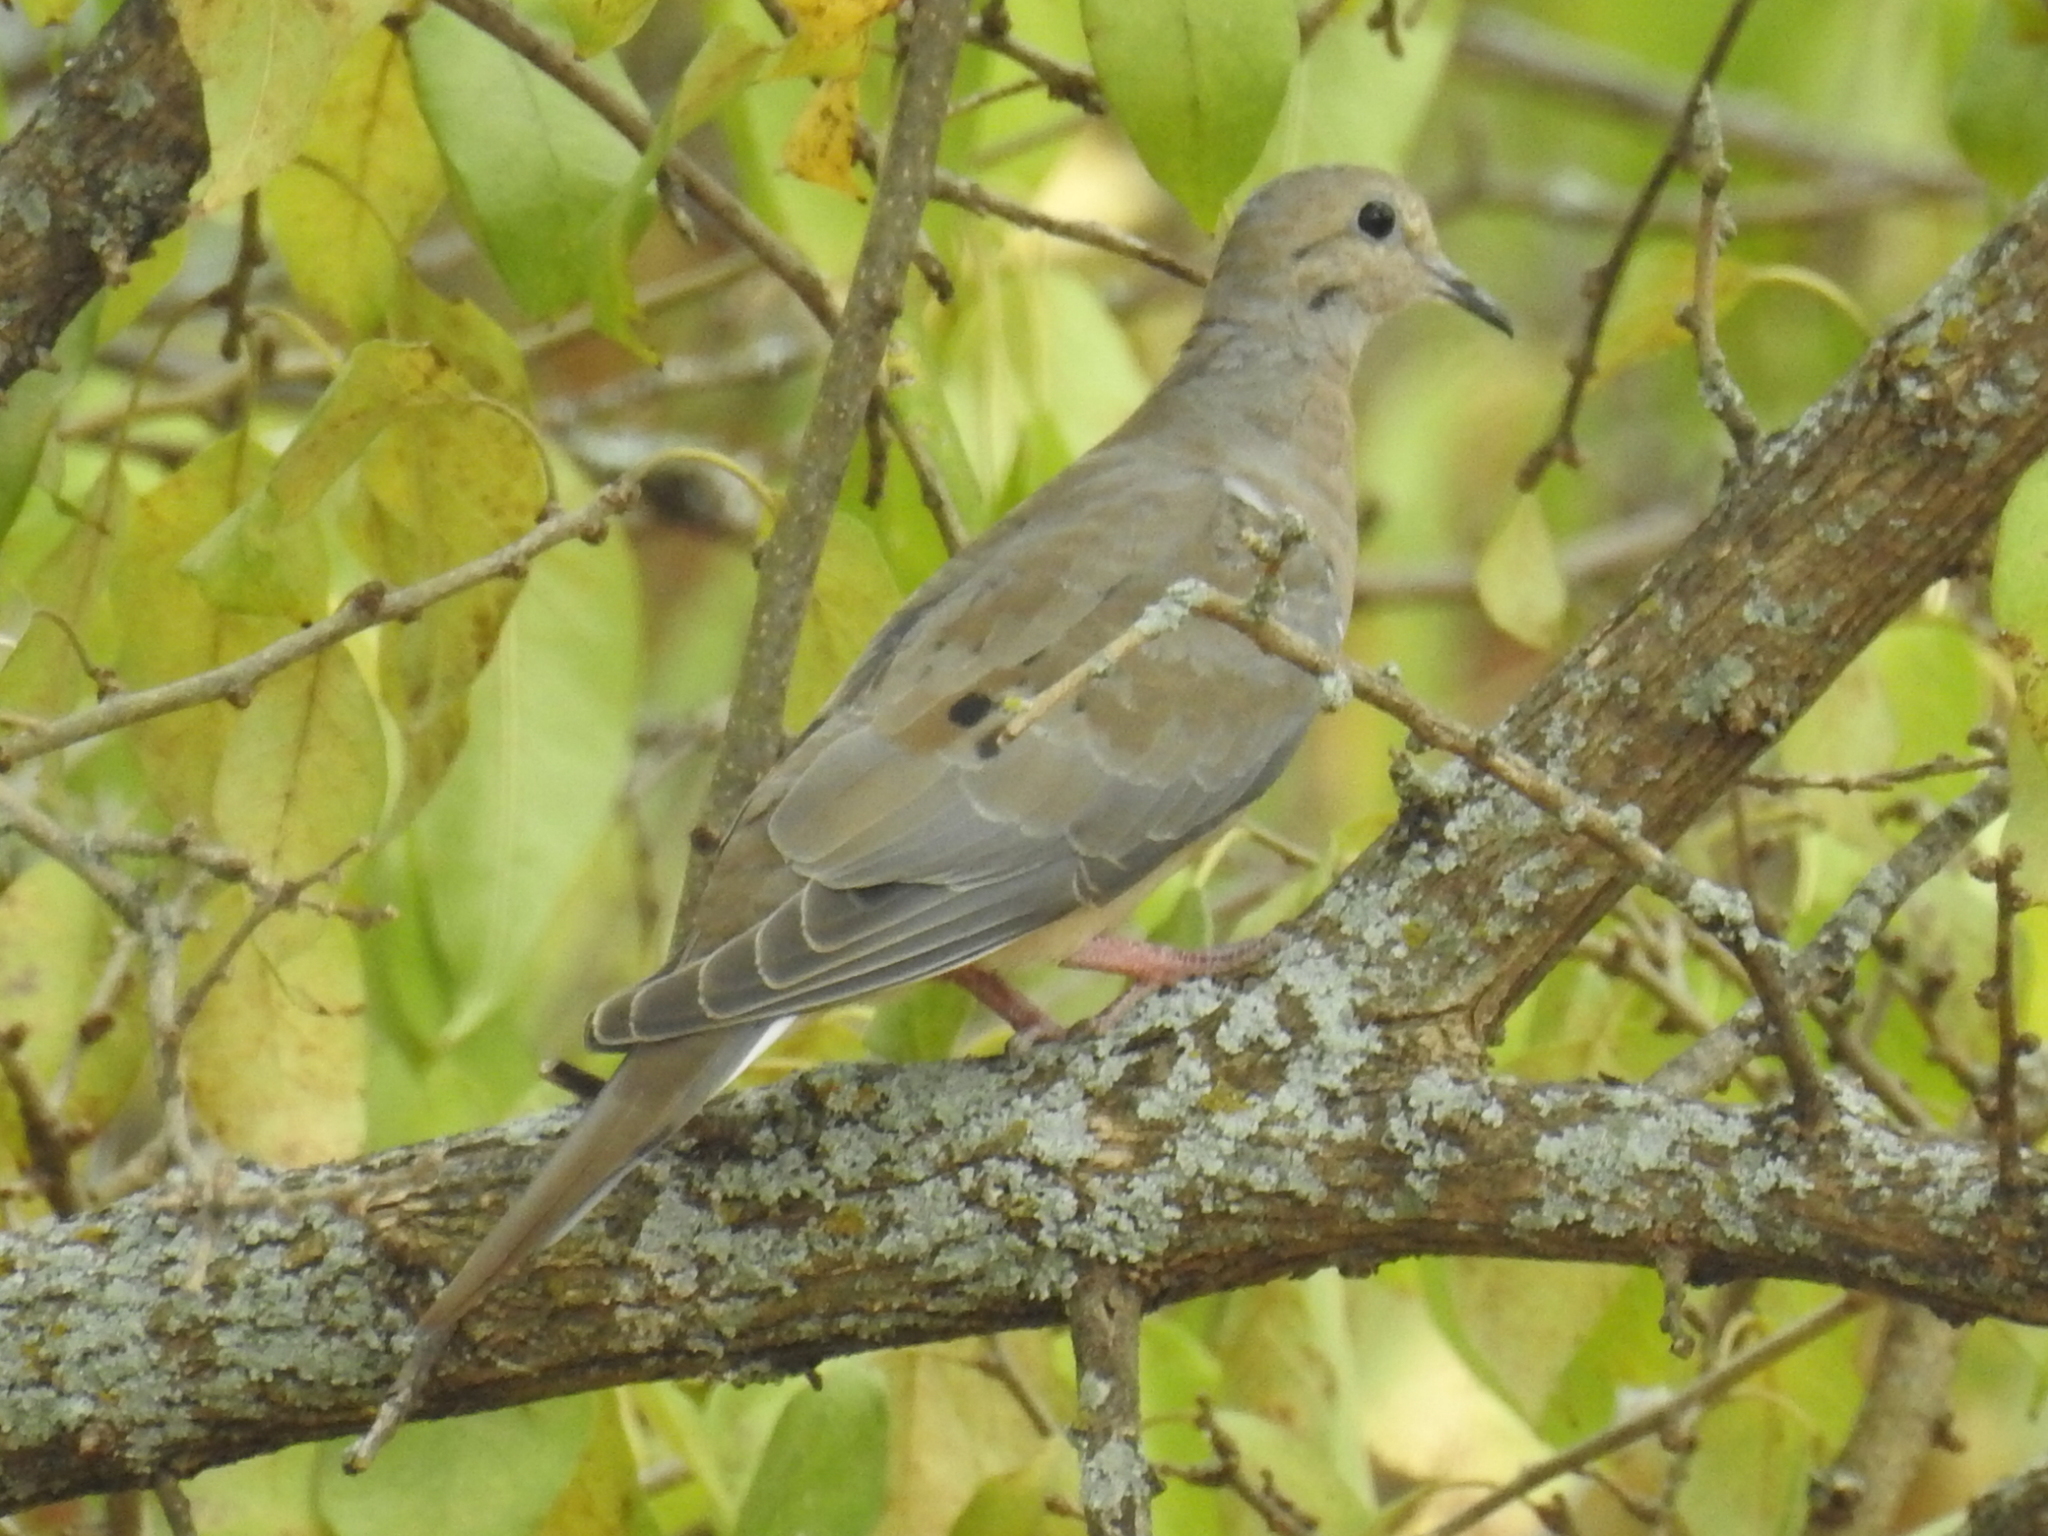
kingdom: Animalia
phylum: Chordata
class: Aves
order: Columbiformes
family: Columbidae
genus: Zenaida
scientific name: Zenaida macroura
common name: Mourning dove
